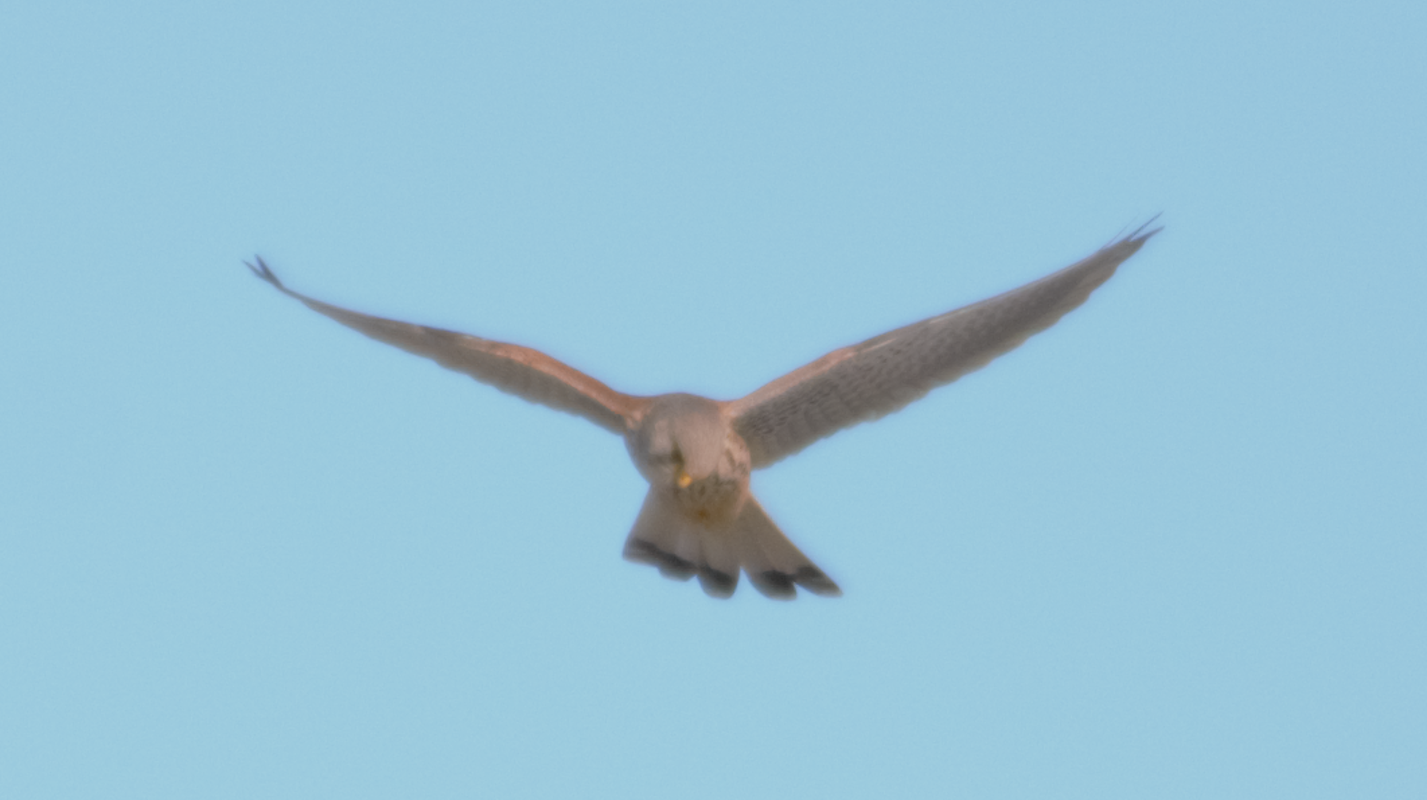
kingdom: Animalia
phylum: Chordata
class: Aves
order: Falconiformes
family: Falconidae
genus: Falco
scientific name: Falco tinnunculus
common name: Common kestrel
